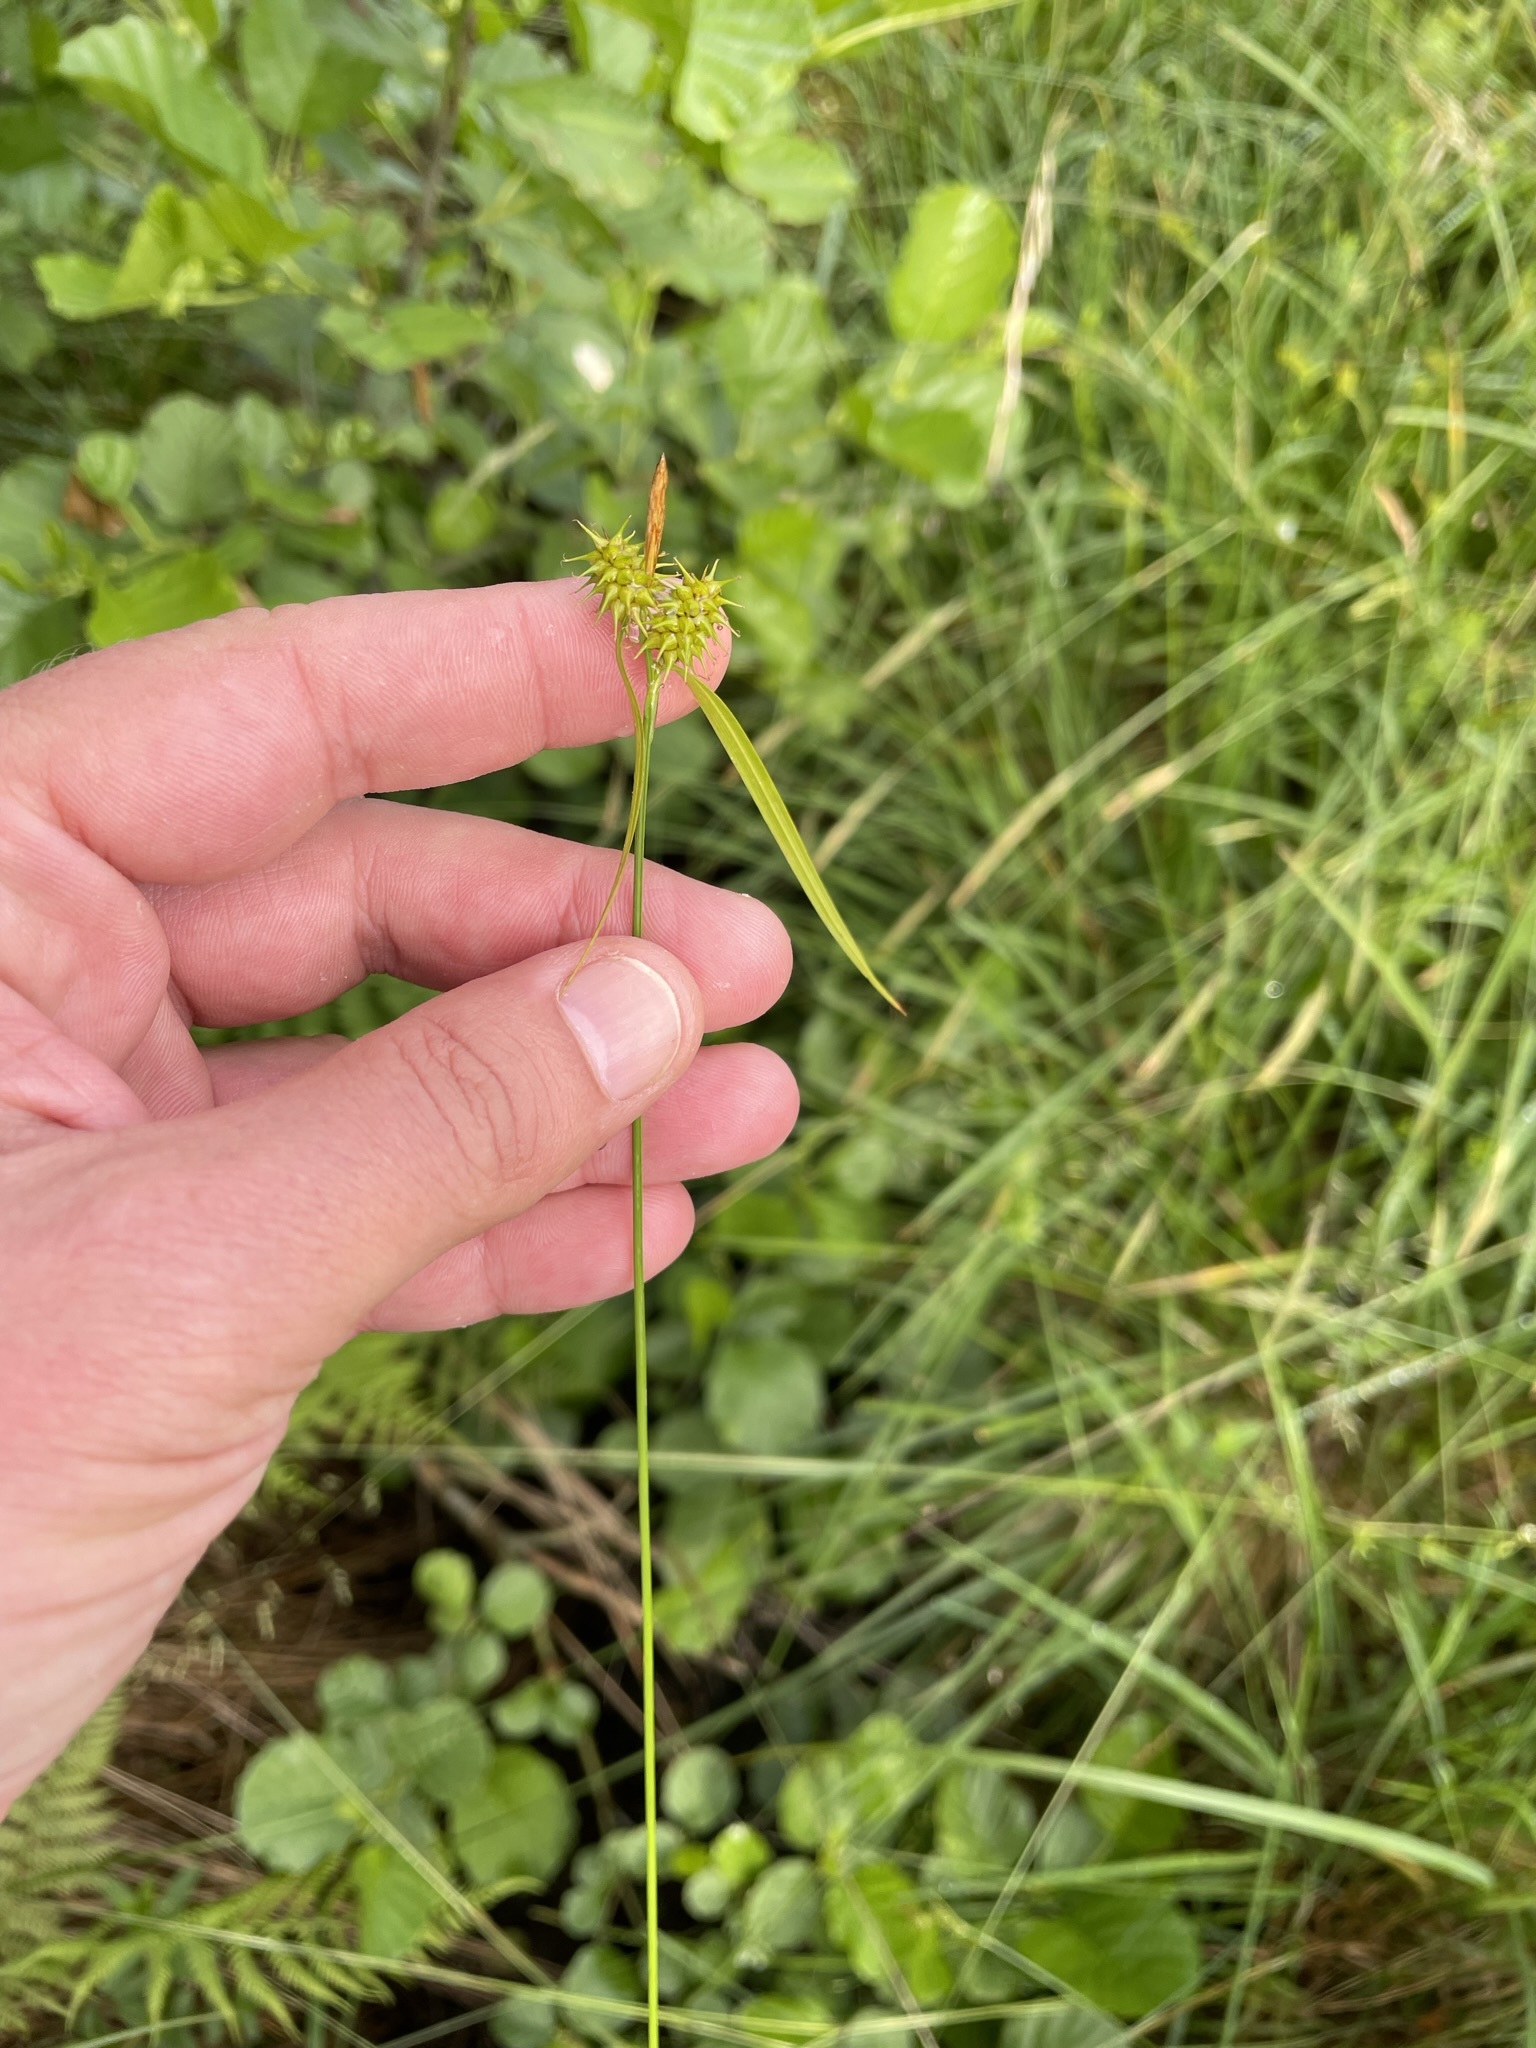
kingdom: Plantae
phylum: Tracheophyta
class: Liliopsida
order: Poales
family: Cyperaceae
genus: Carex
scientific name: Carex flava
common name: Large yellow-sedge
